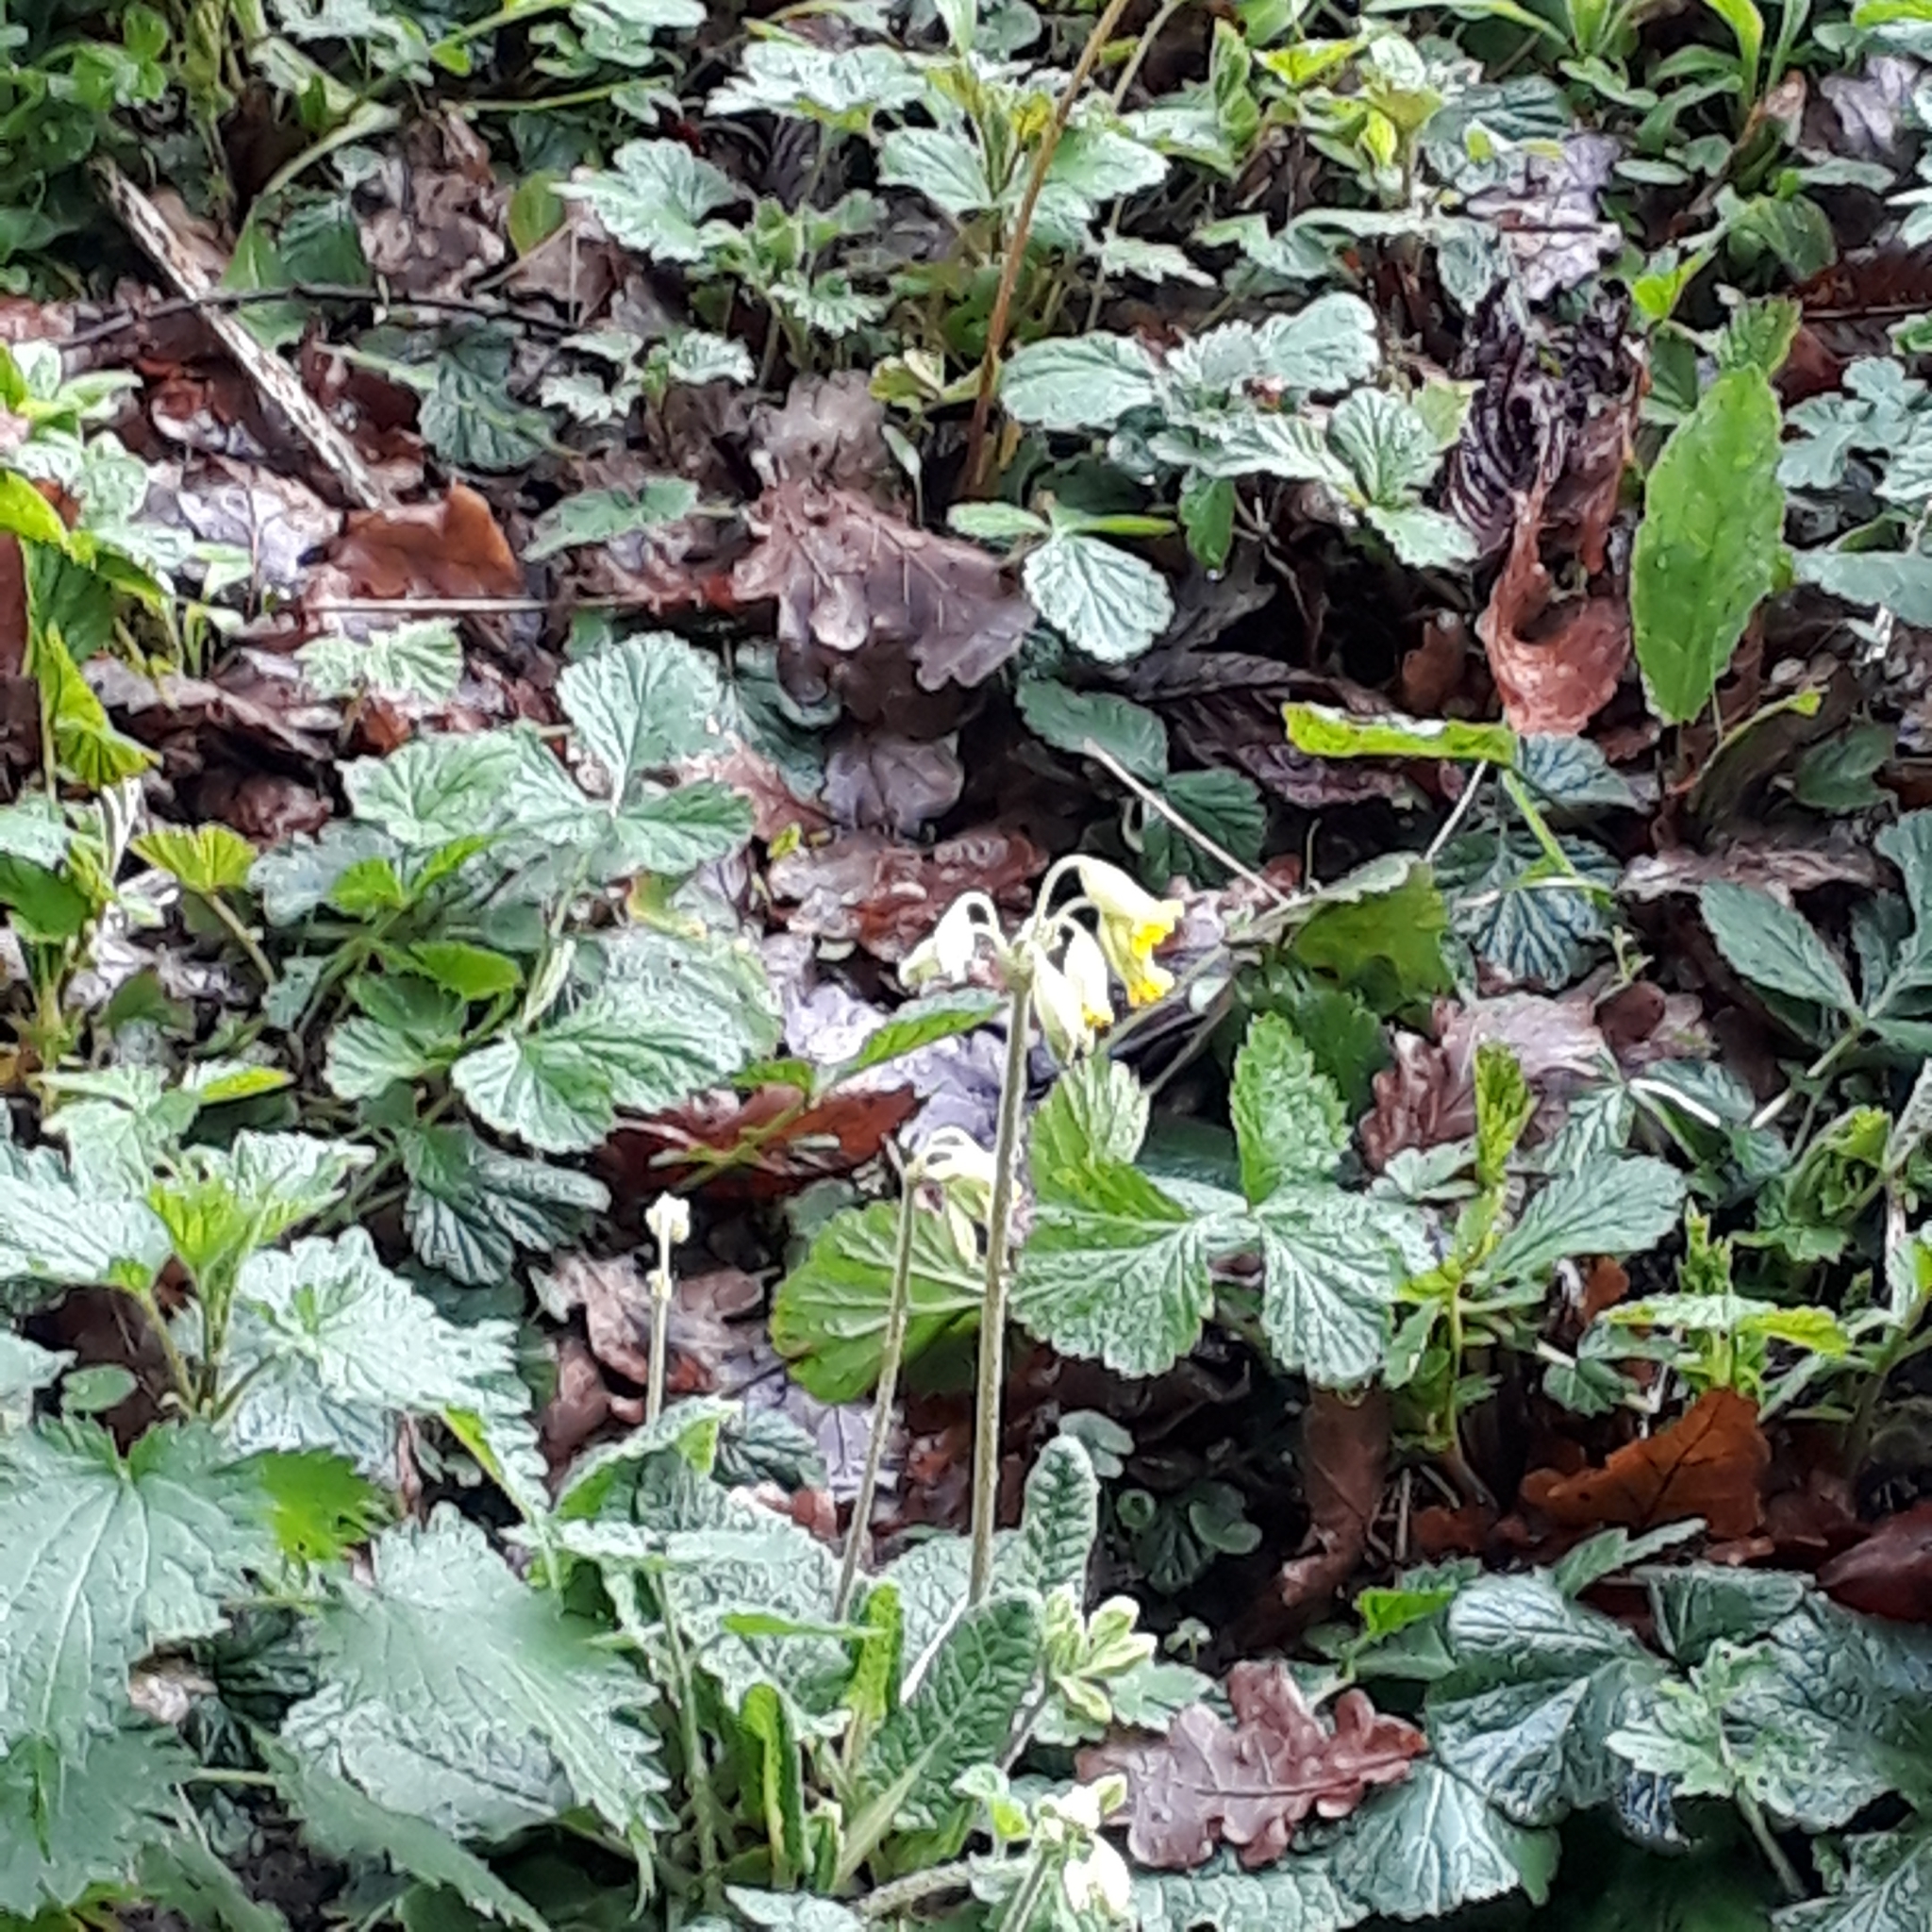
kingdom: Plantae
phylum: Tracheophyta
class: Magnoliopsida
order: Ericales
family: Primulaceae
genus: Primula
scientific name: Primula veris
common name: Cowslip
